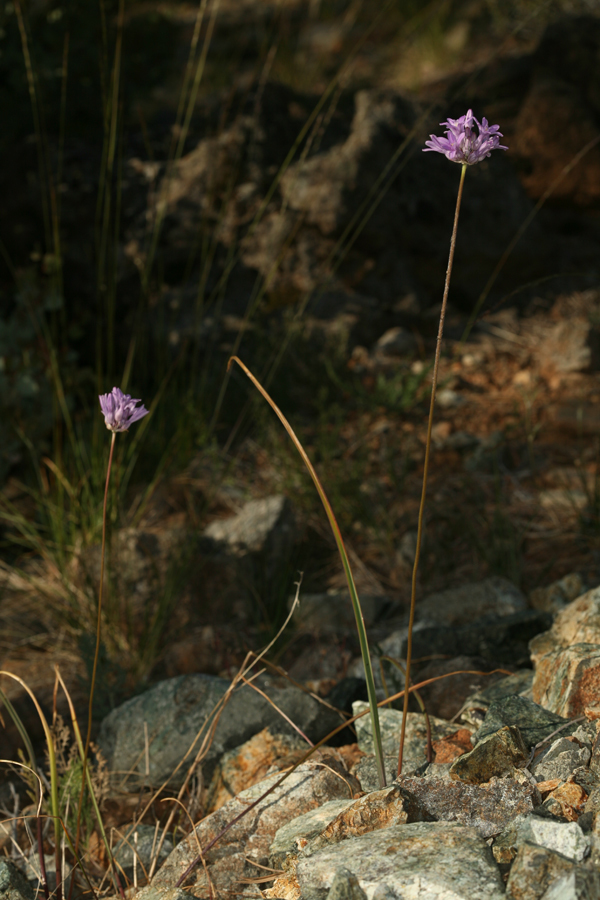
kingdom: Plantae
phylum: Tracheophyta
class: Liliopsida
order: Asparagales
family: Asparagaceae
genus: Dichelostemma
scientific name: Dichelostemma multiflorum
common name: Round-tooth ookow
